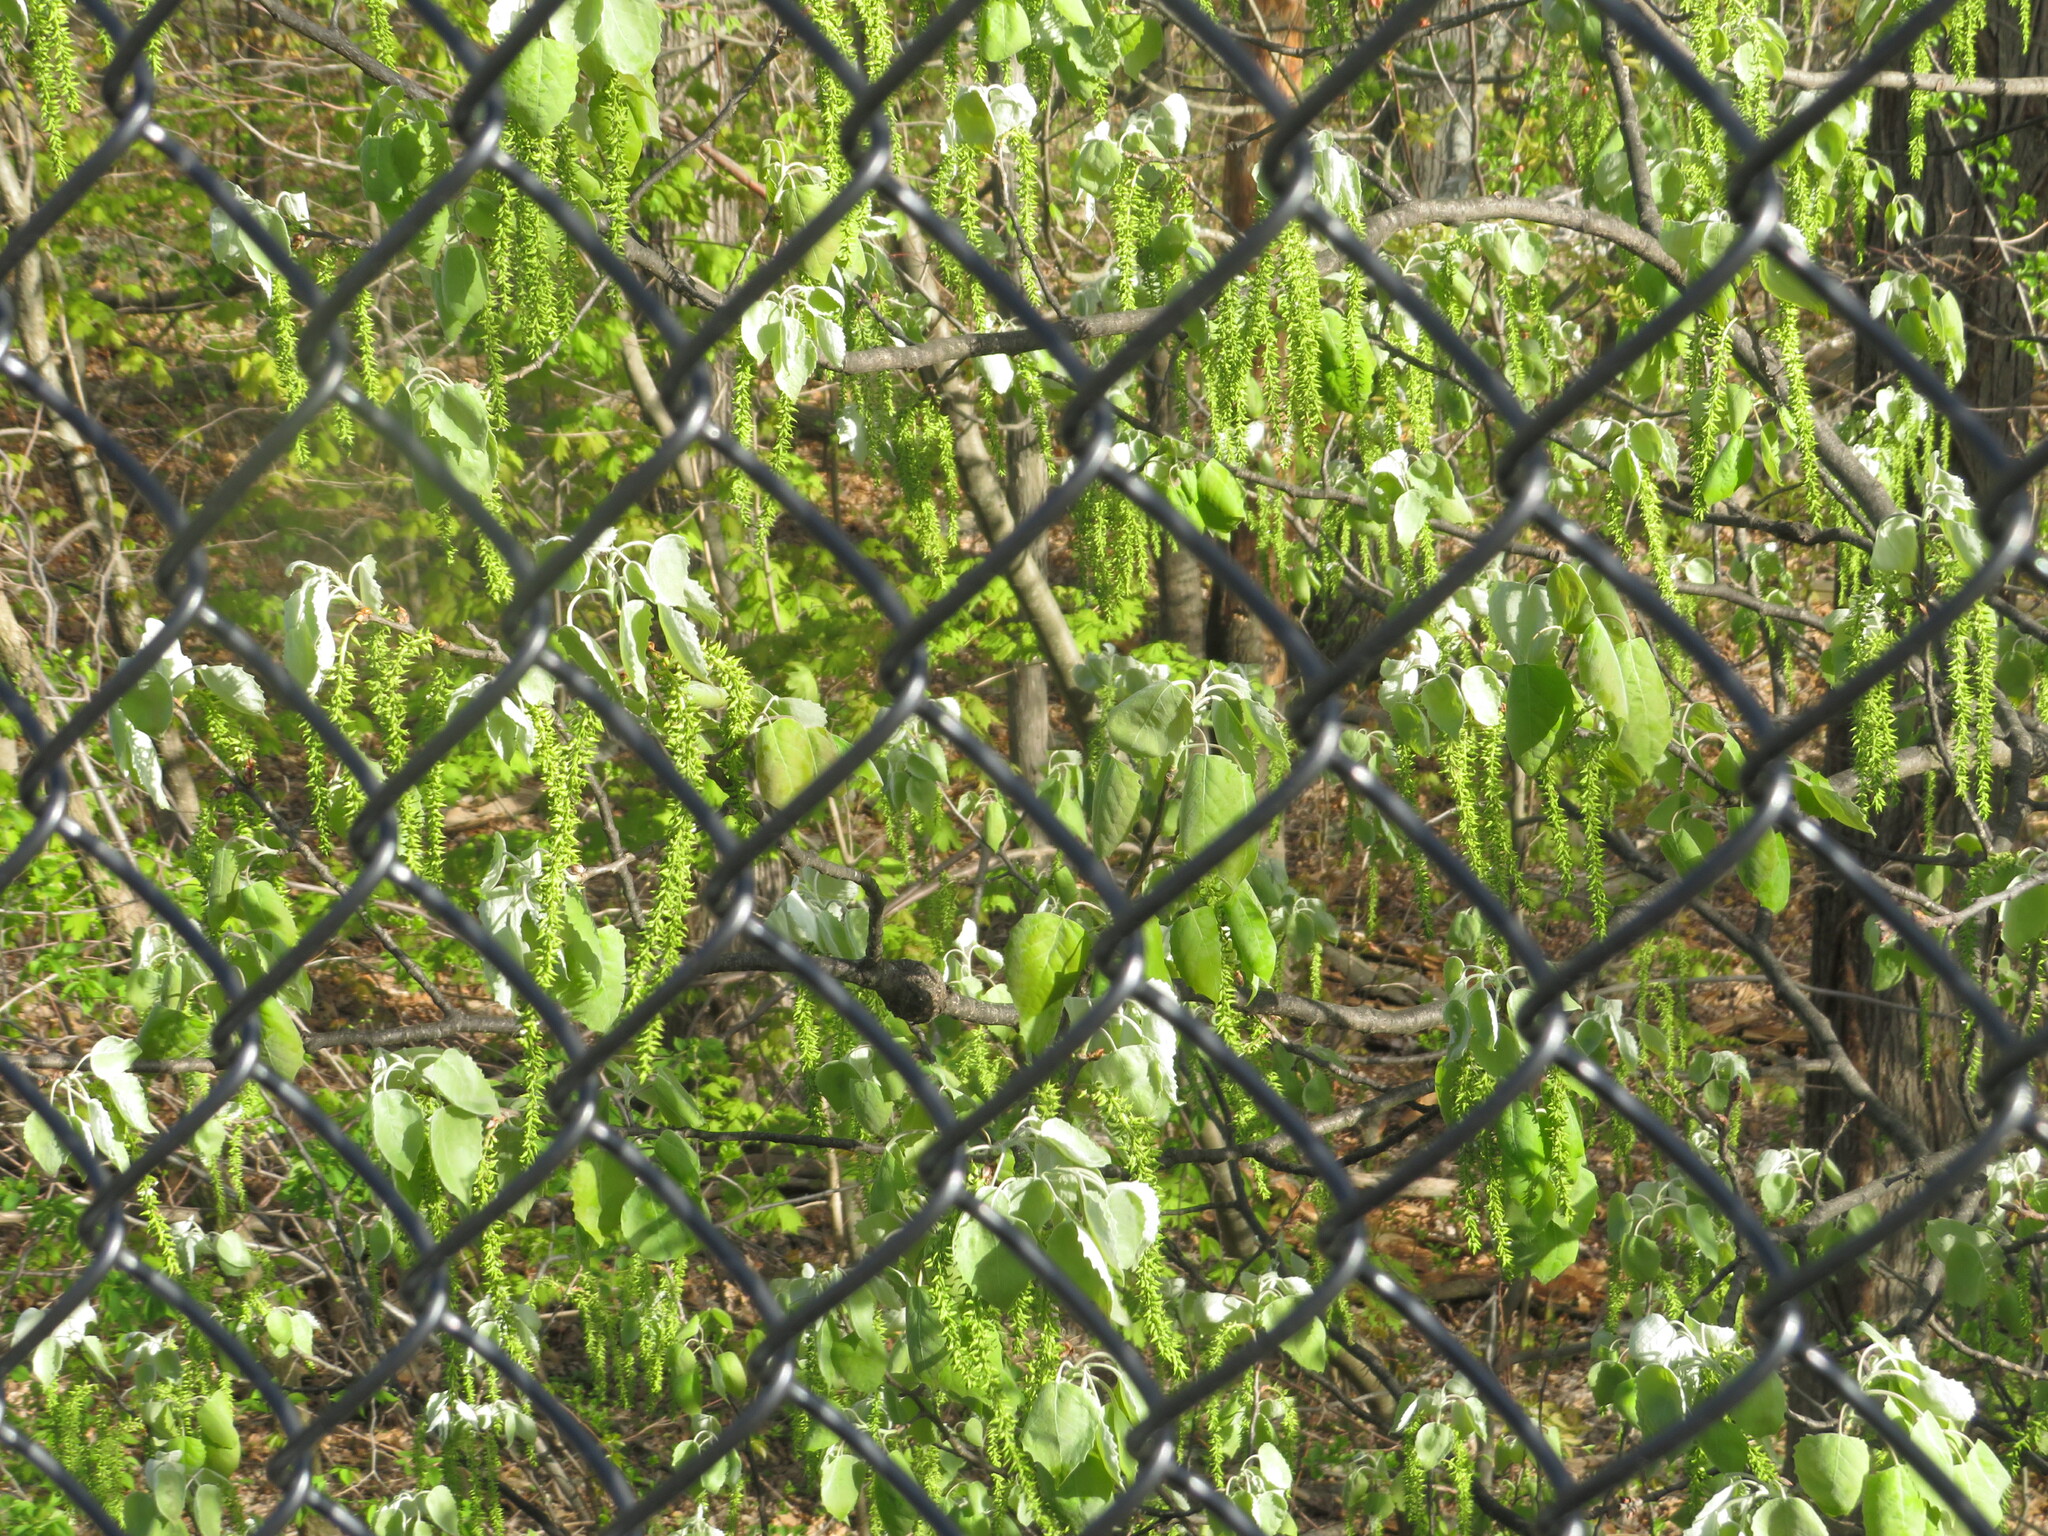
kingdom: Plantae
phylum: Tracheophyta
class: Magnoliopsida
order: Malpighiales
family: Salicaceae
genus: Populus
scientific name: Populus grandidentata
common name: Bigtooth aspen
